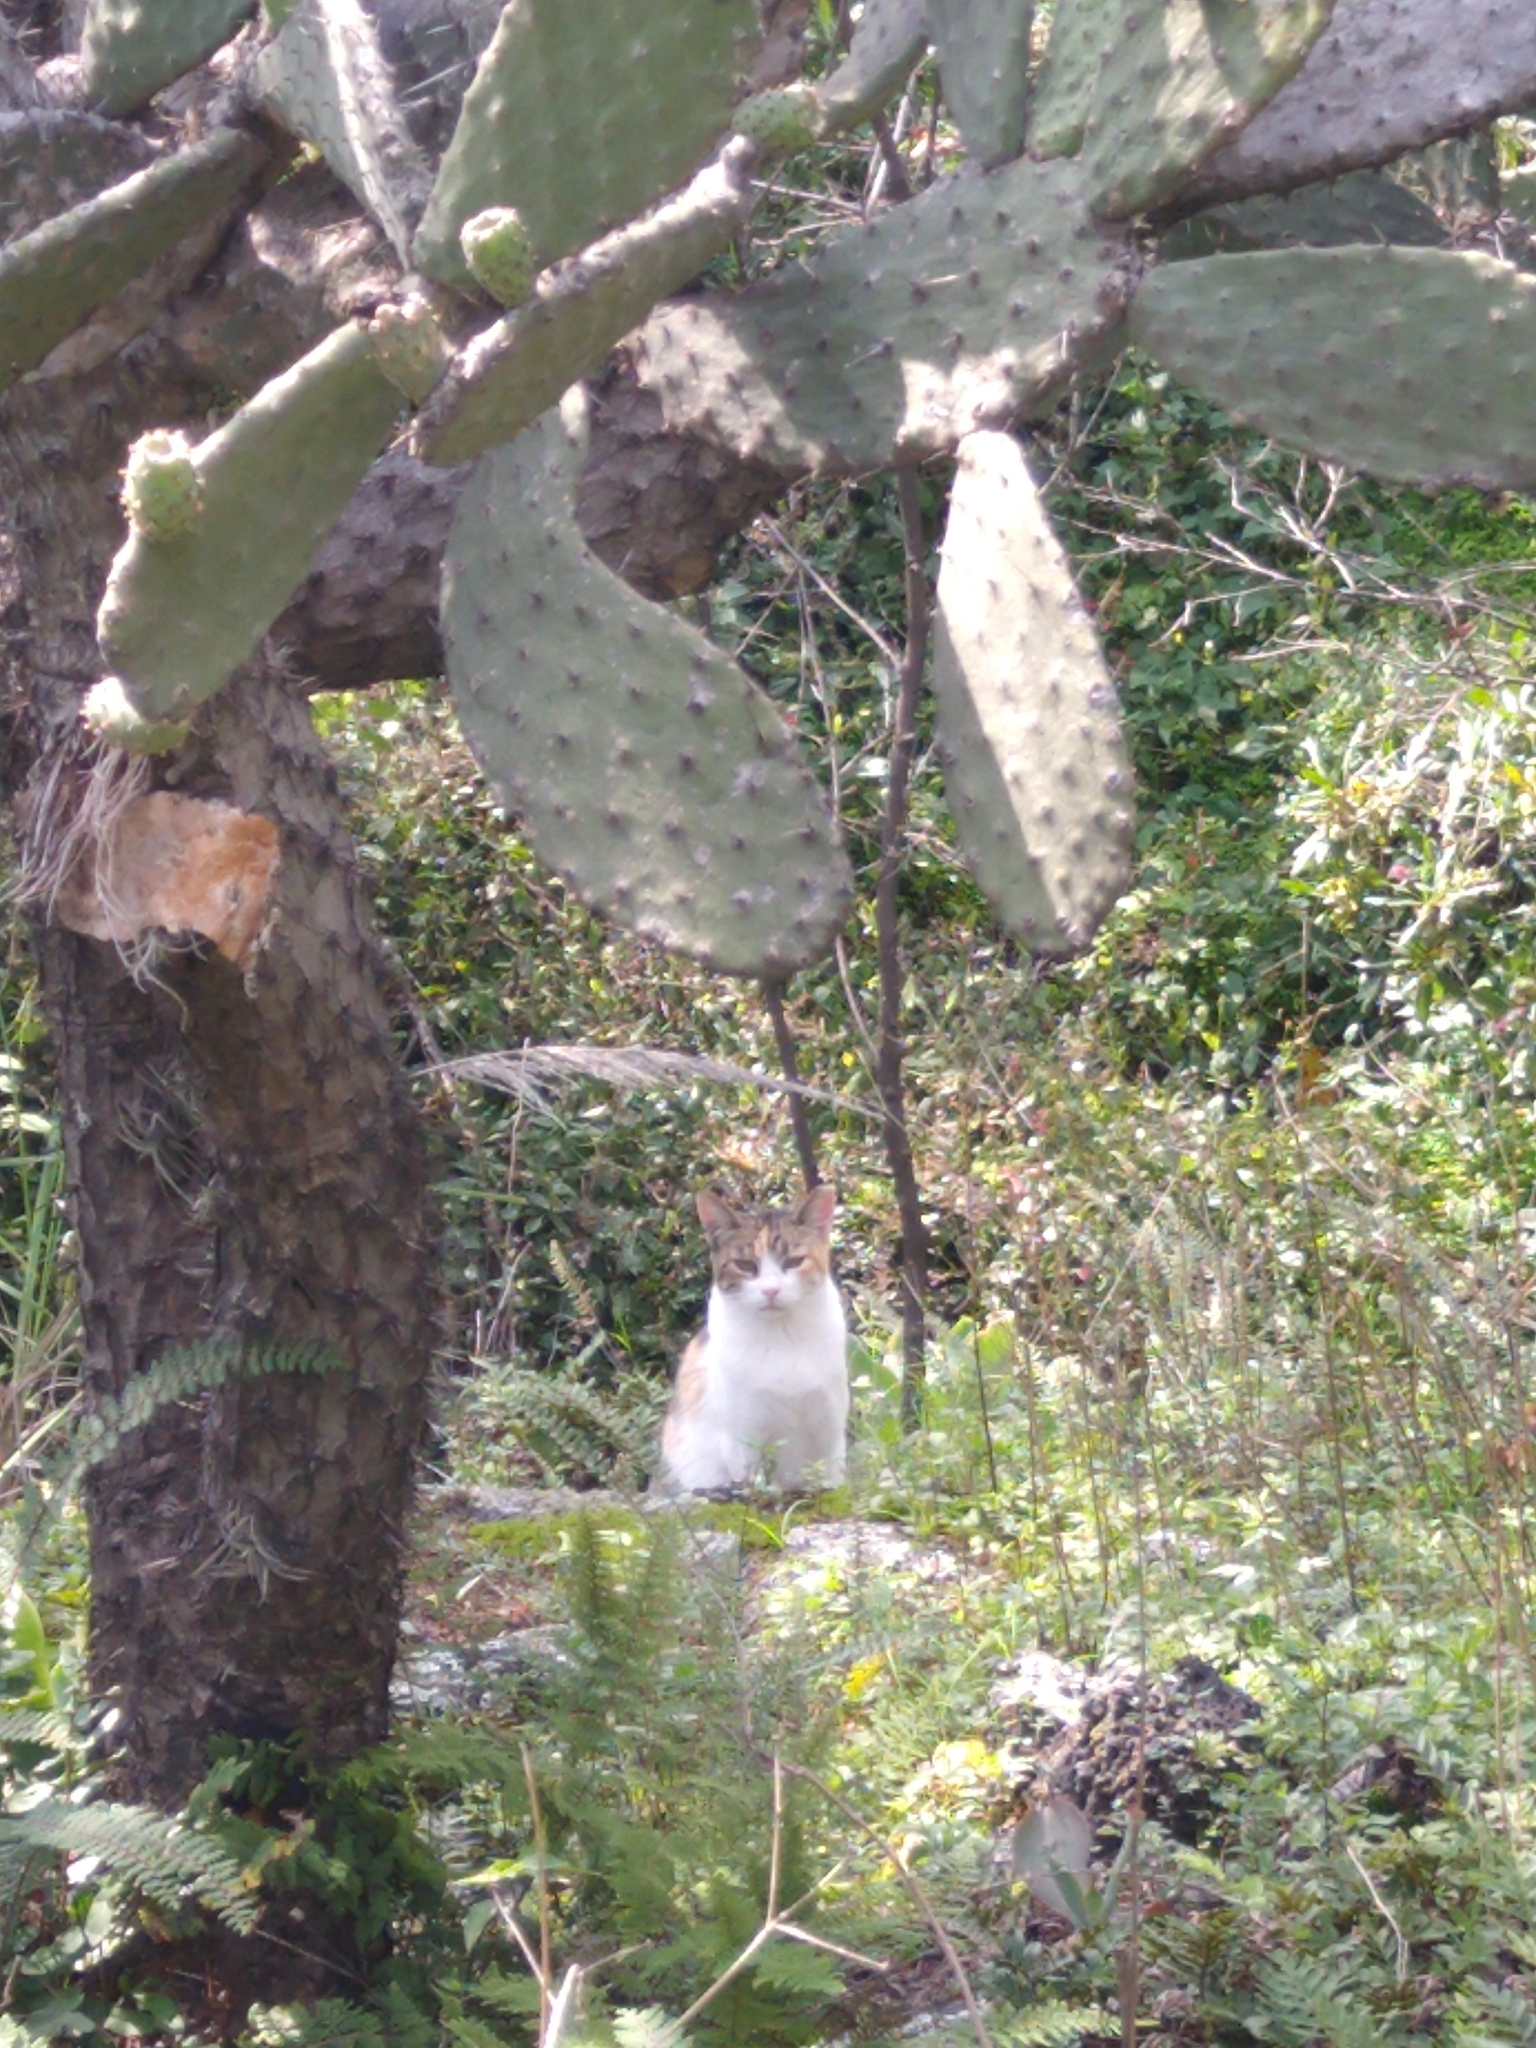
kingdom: Animalia
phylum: Chordata
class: Mammalia
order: Carnivora
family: Felidae
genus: Felis
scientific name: Felis catus
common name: Domestic cat
